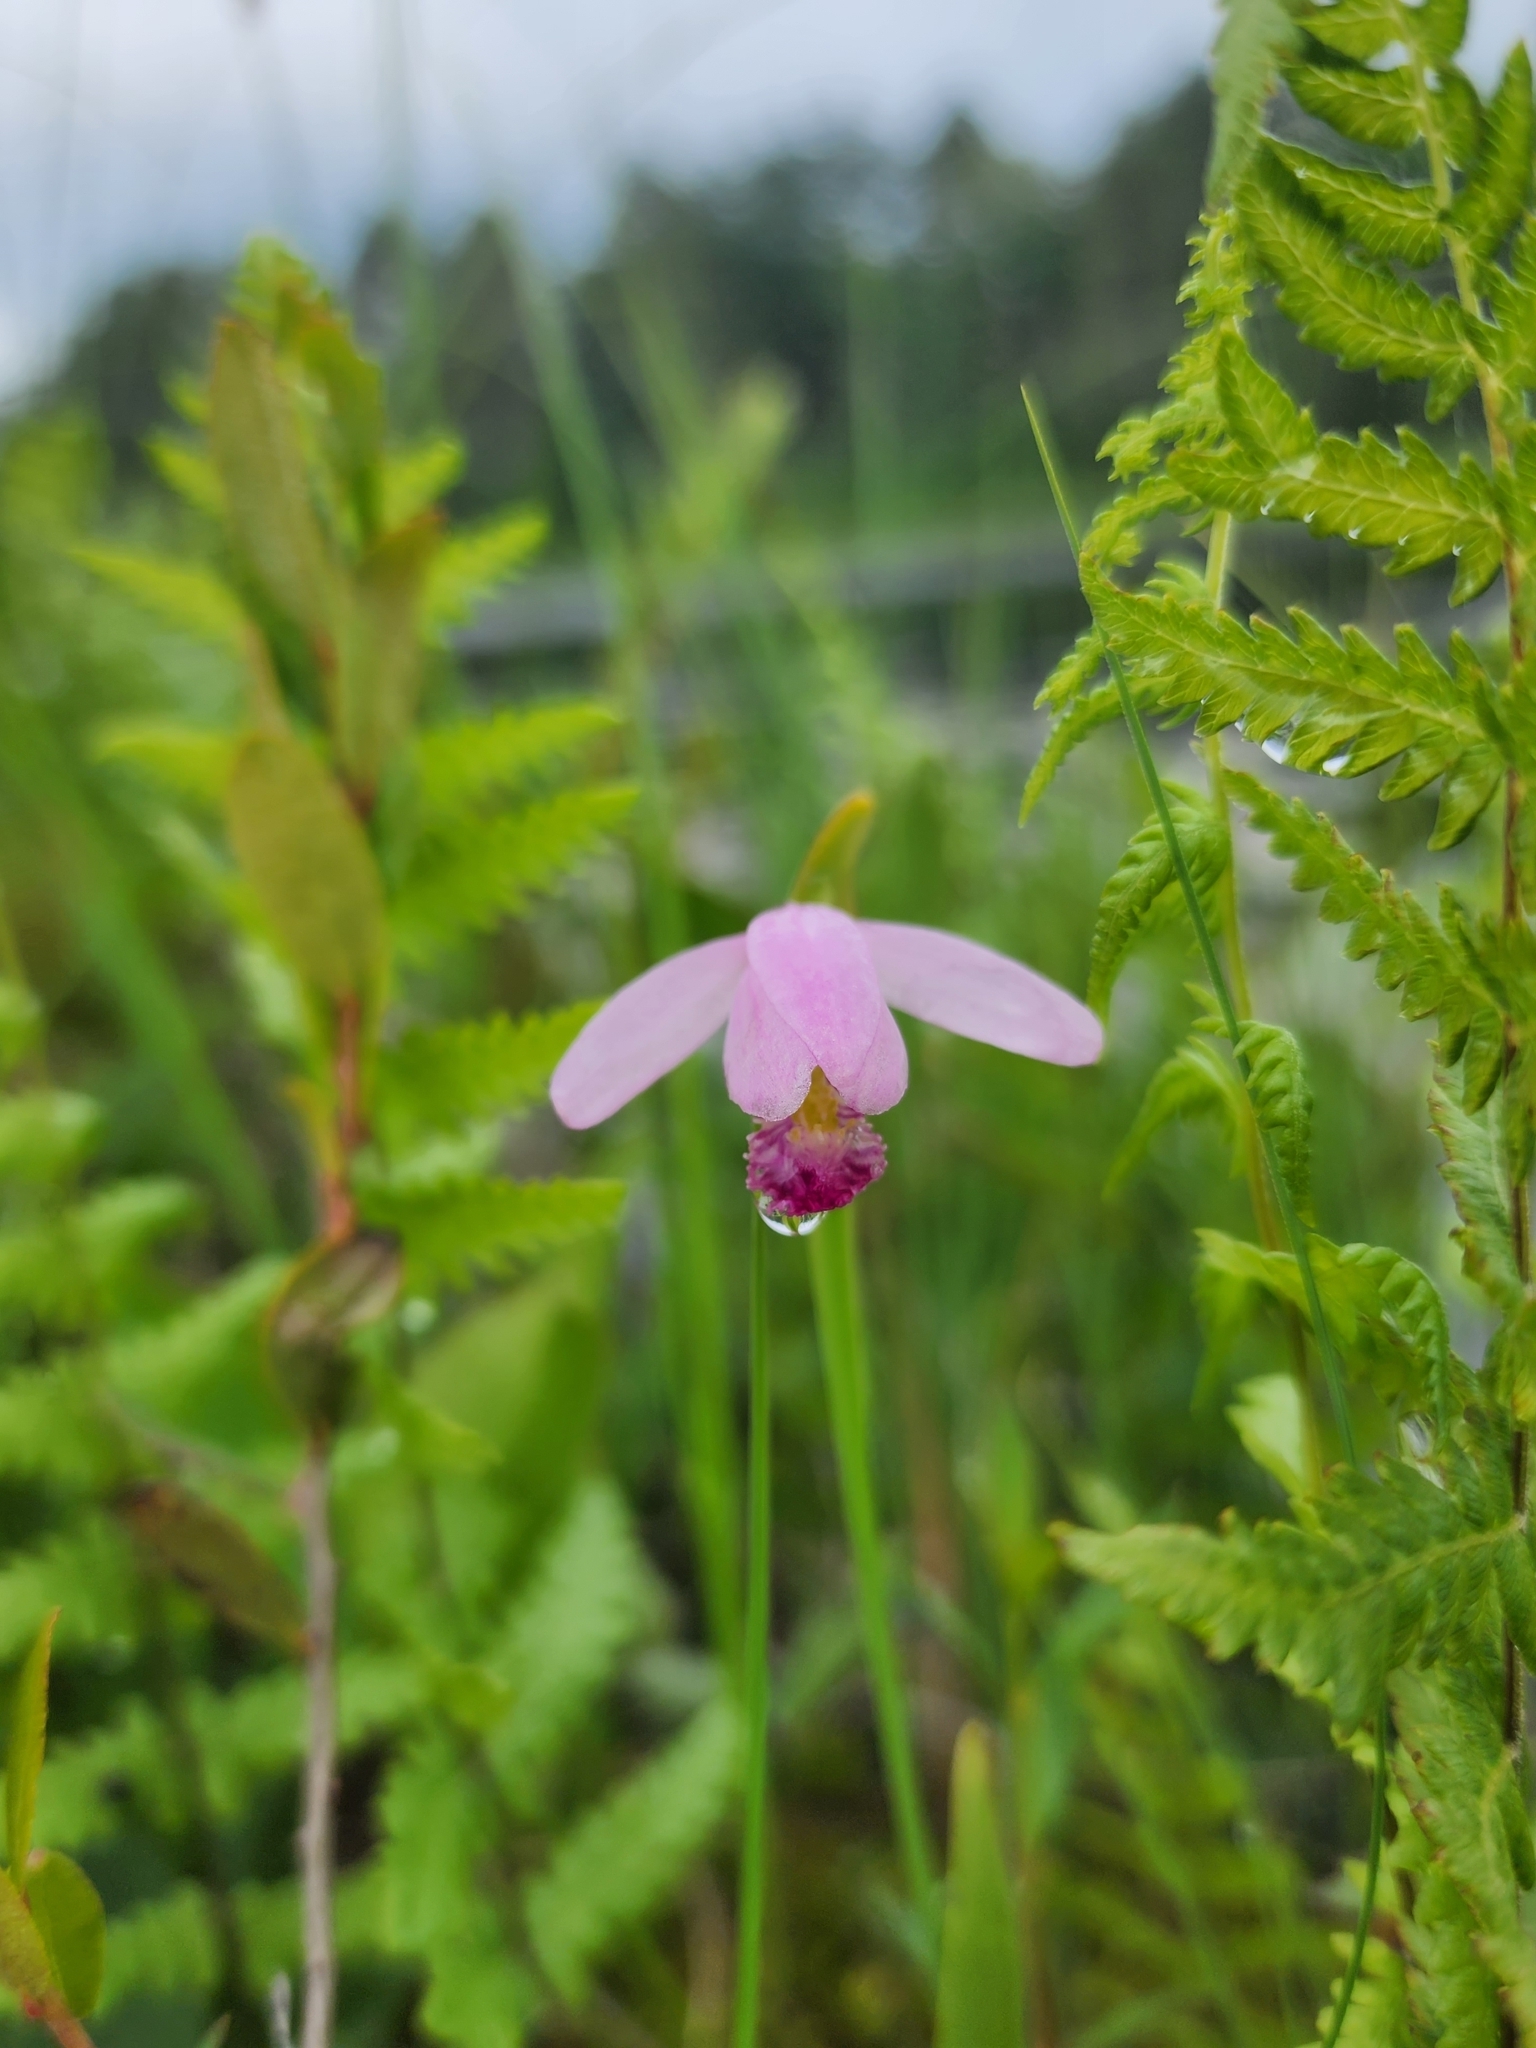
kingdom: Plantae
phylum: Tracheophyta
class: Liliopsida
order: Asparagales
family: Orchidaceae
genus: Pogonia
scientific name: Pogonia ophioglossoides
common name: Rose pogonia
